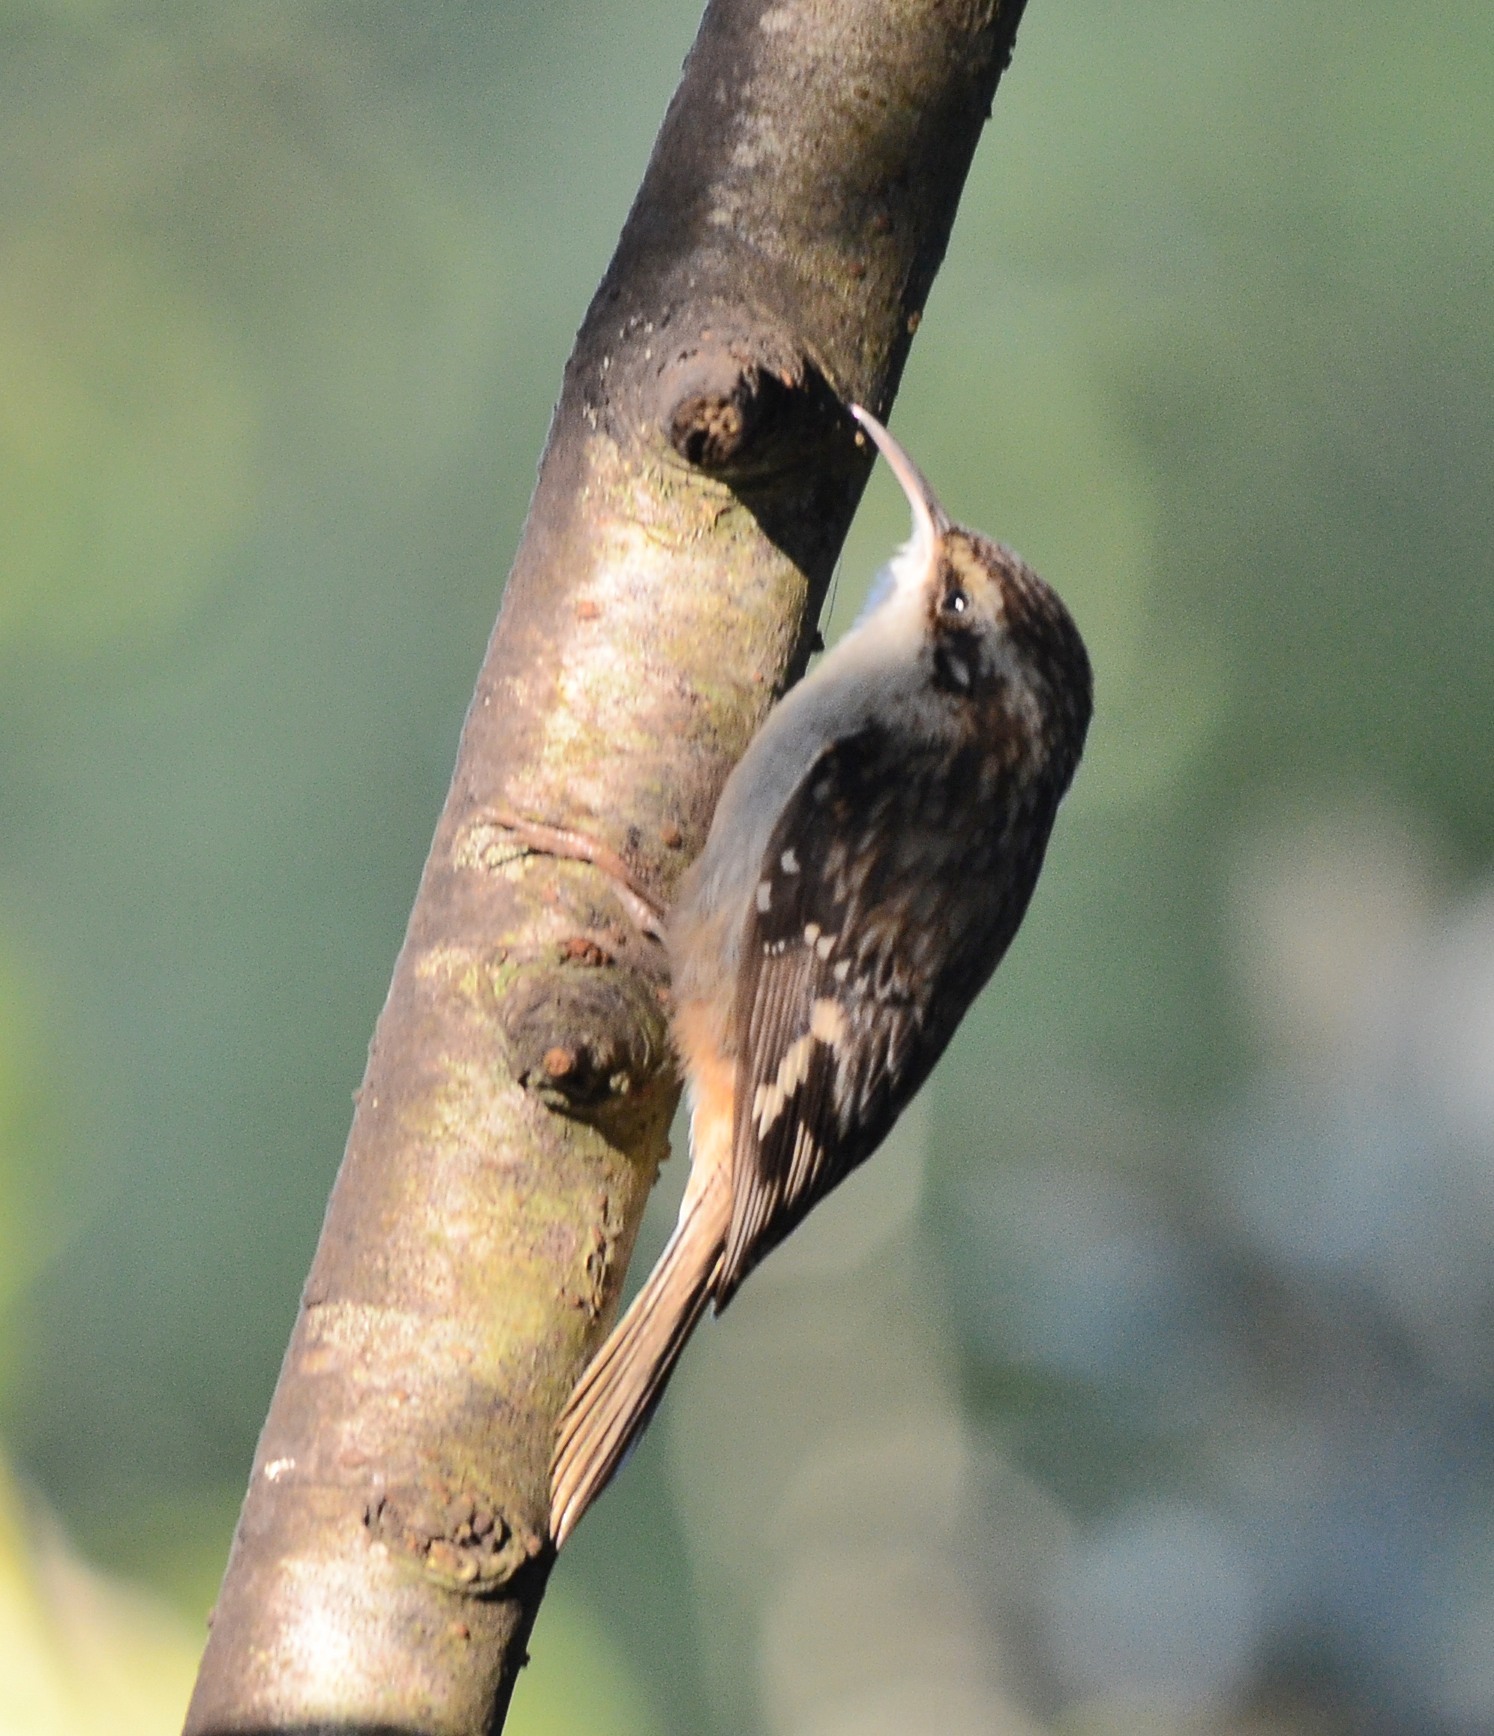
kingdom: Animalia
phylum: Chordata
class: Aves
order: Passeriformes
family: Certhiidae
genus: Certhia
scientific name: Certhia americana
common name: Brown creeper
